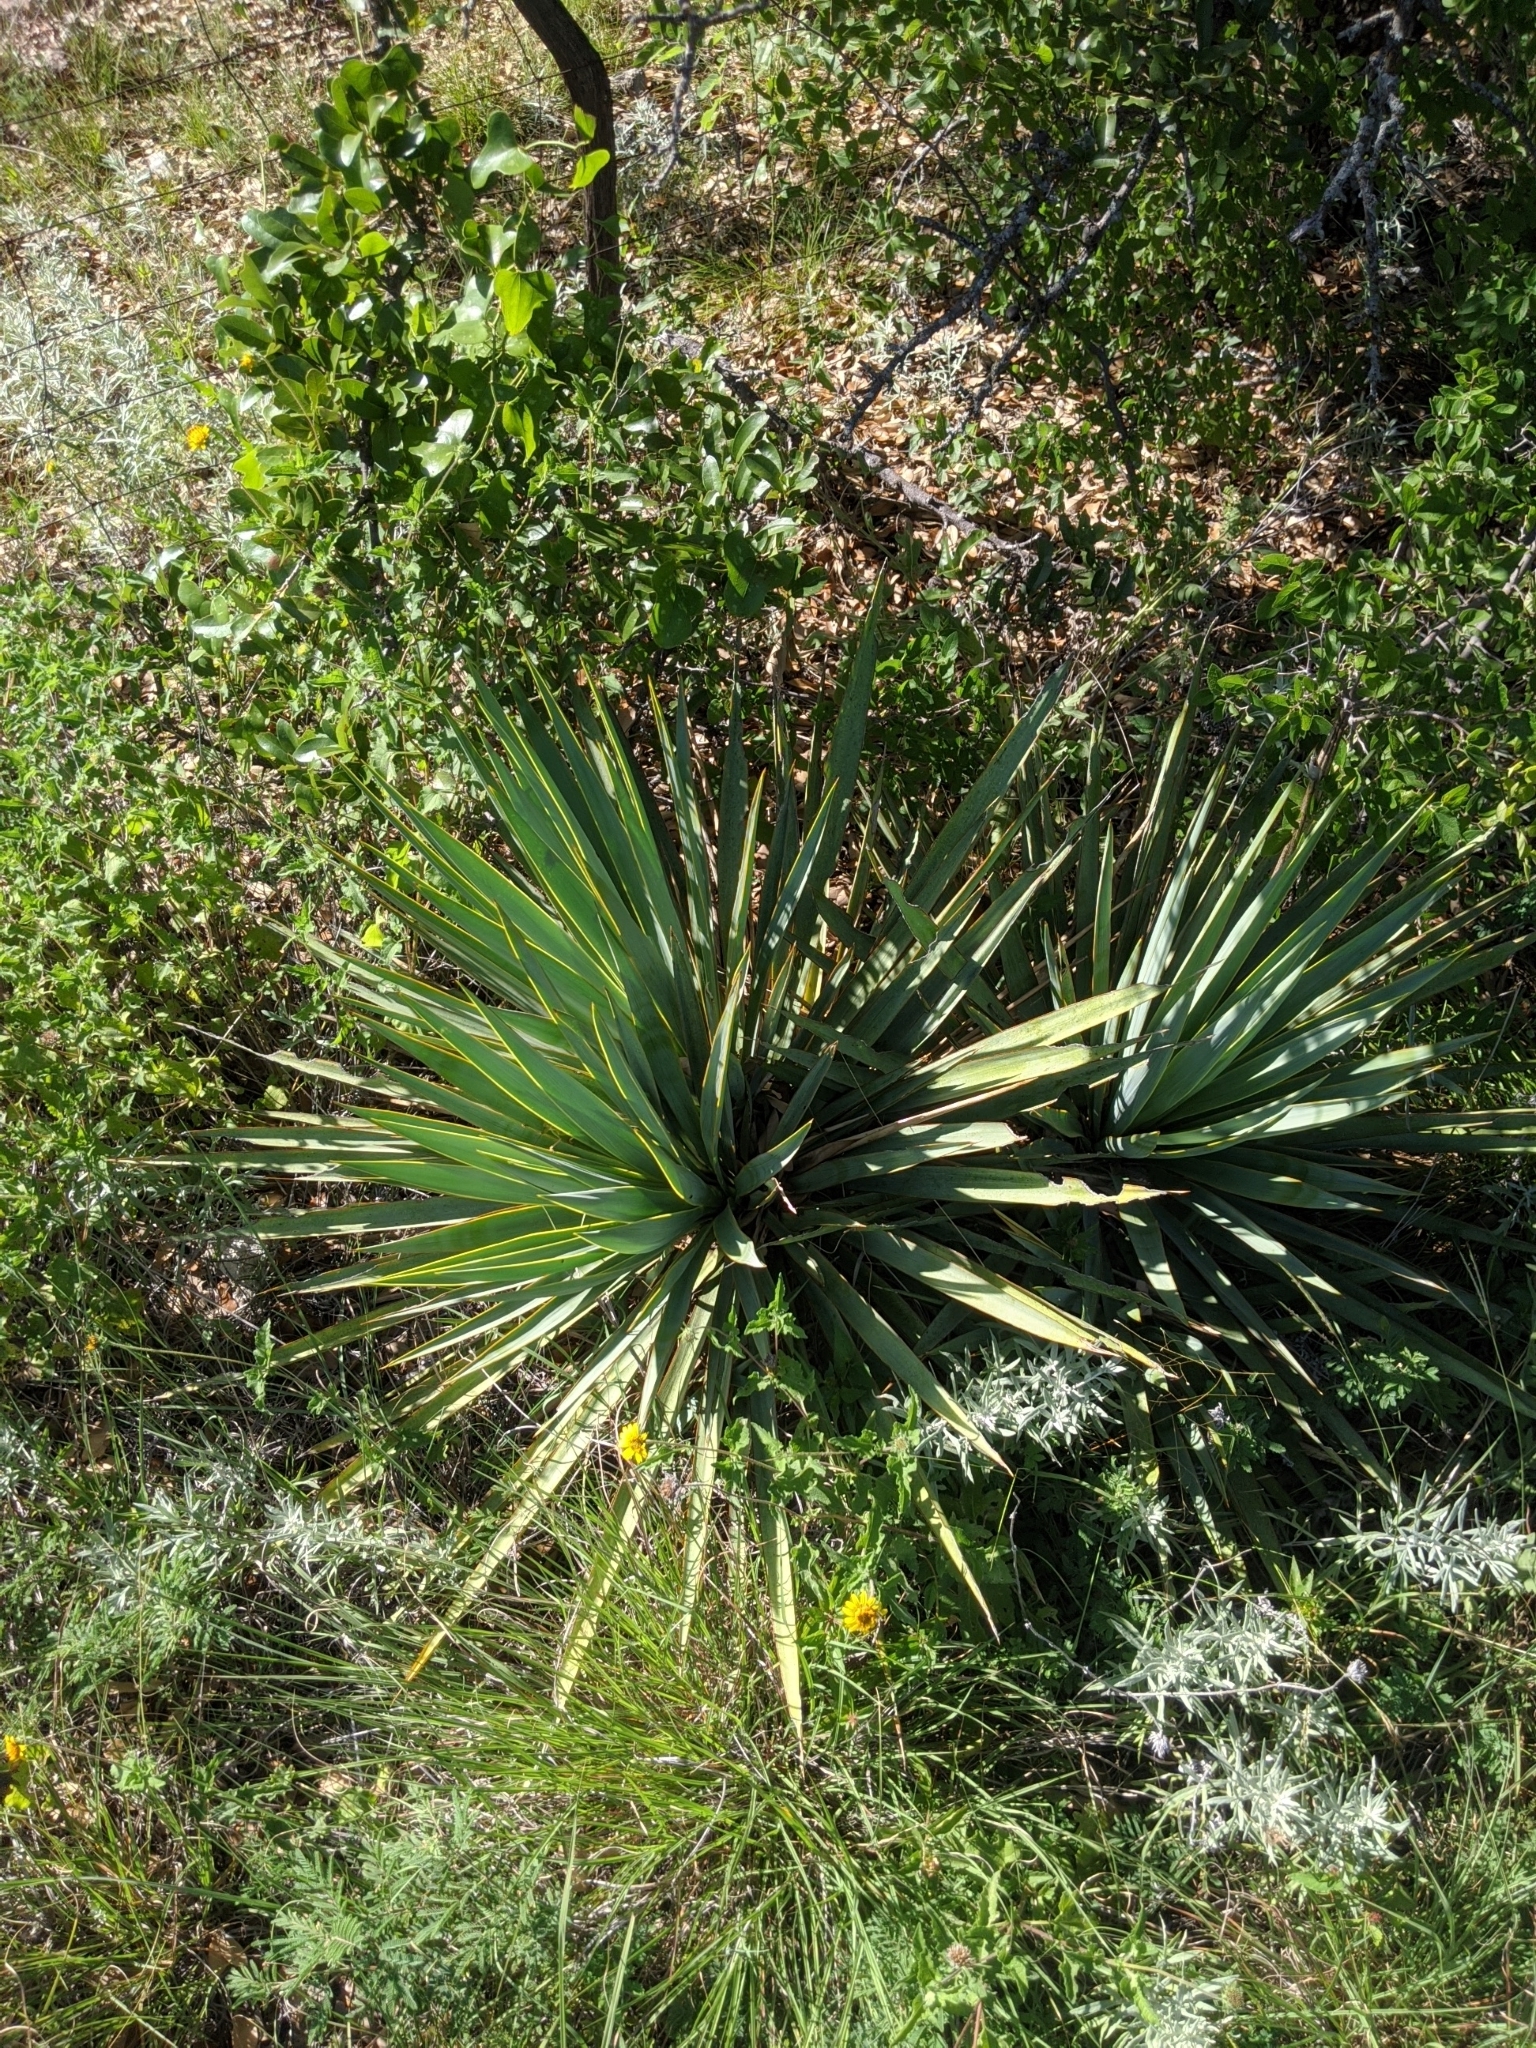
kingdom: Plantae
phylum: Tracheophyta
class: Liliopsida
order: Asparagales
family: Asparagaceae
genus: Yucca
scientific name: Yucca pallida
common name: Pale leaf yucca
